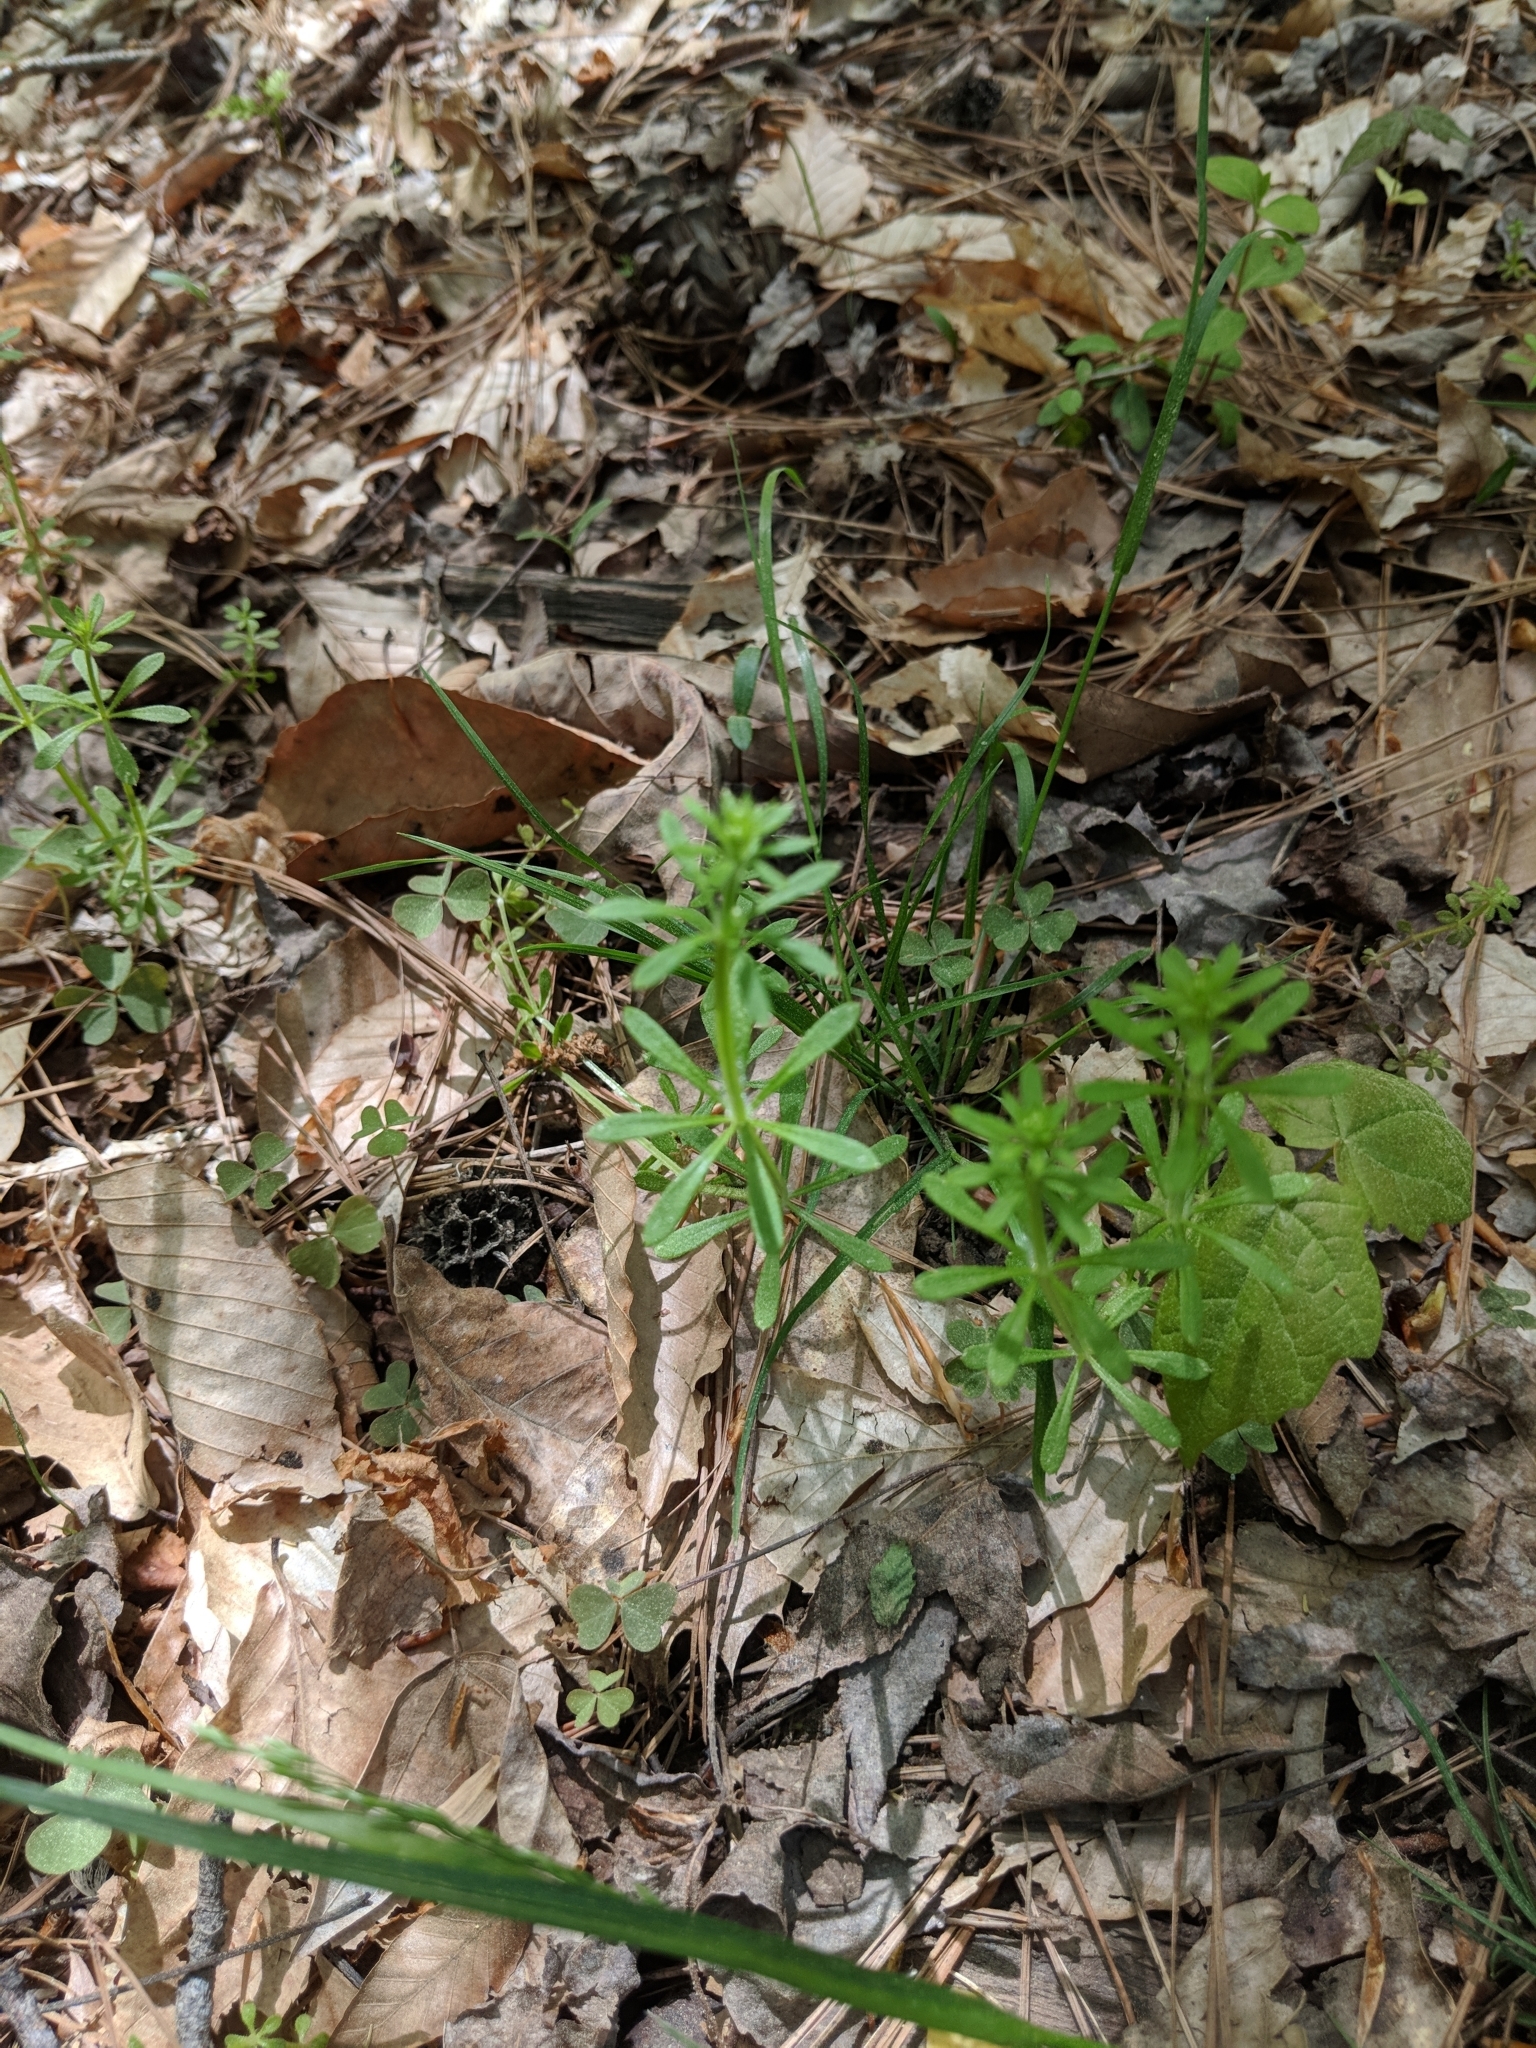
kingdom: Plantae
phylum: Tracheophyta
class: Magnoliopsida
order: Gentianales
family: Rubiaceae
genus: Galium
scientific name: Galium aparine
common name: Cleavers
